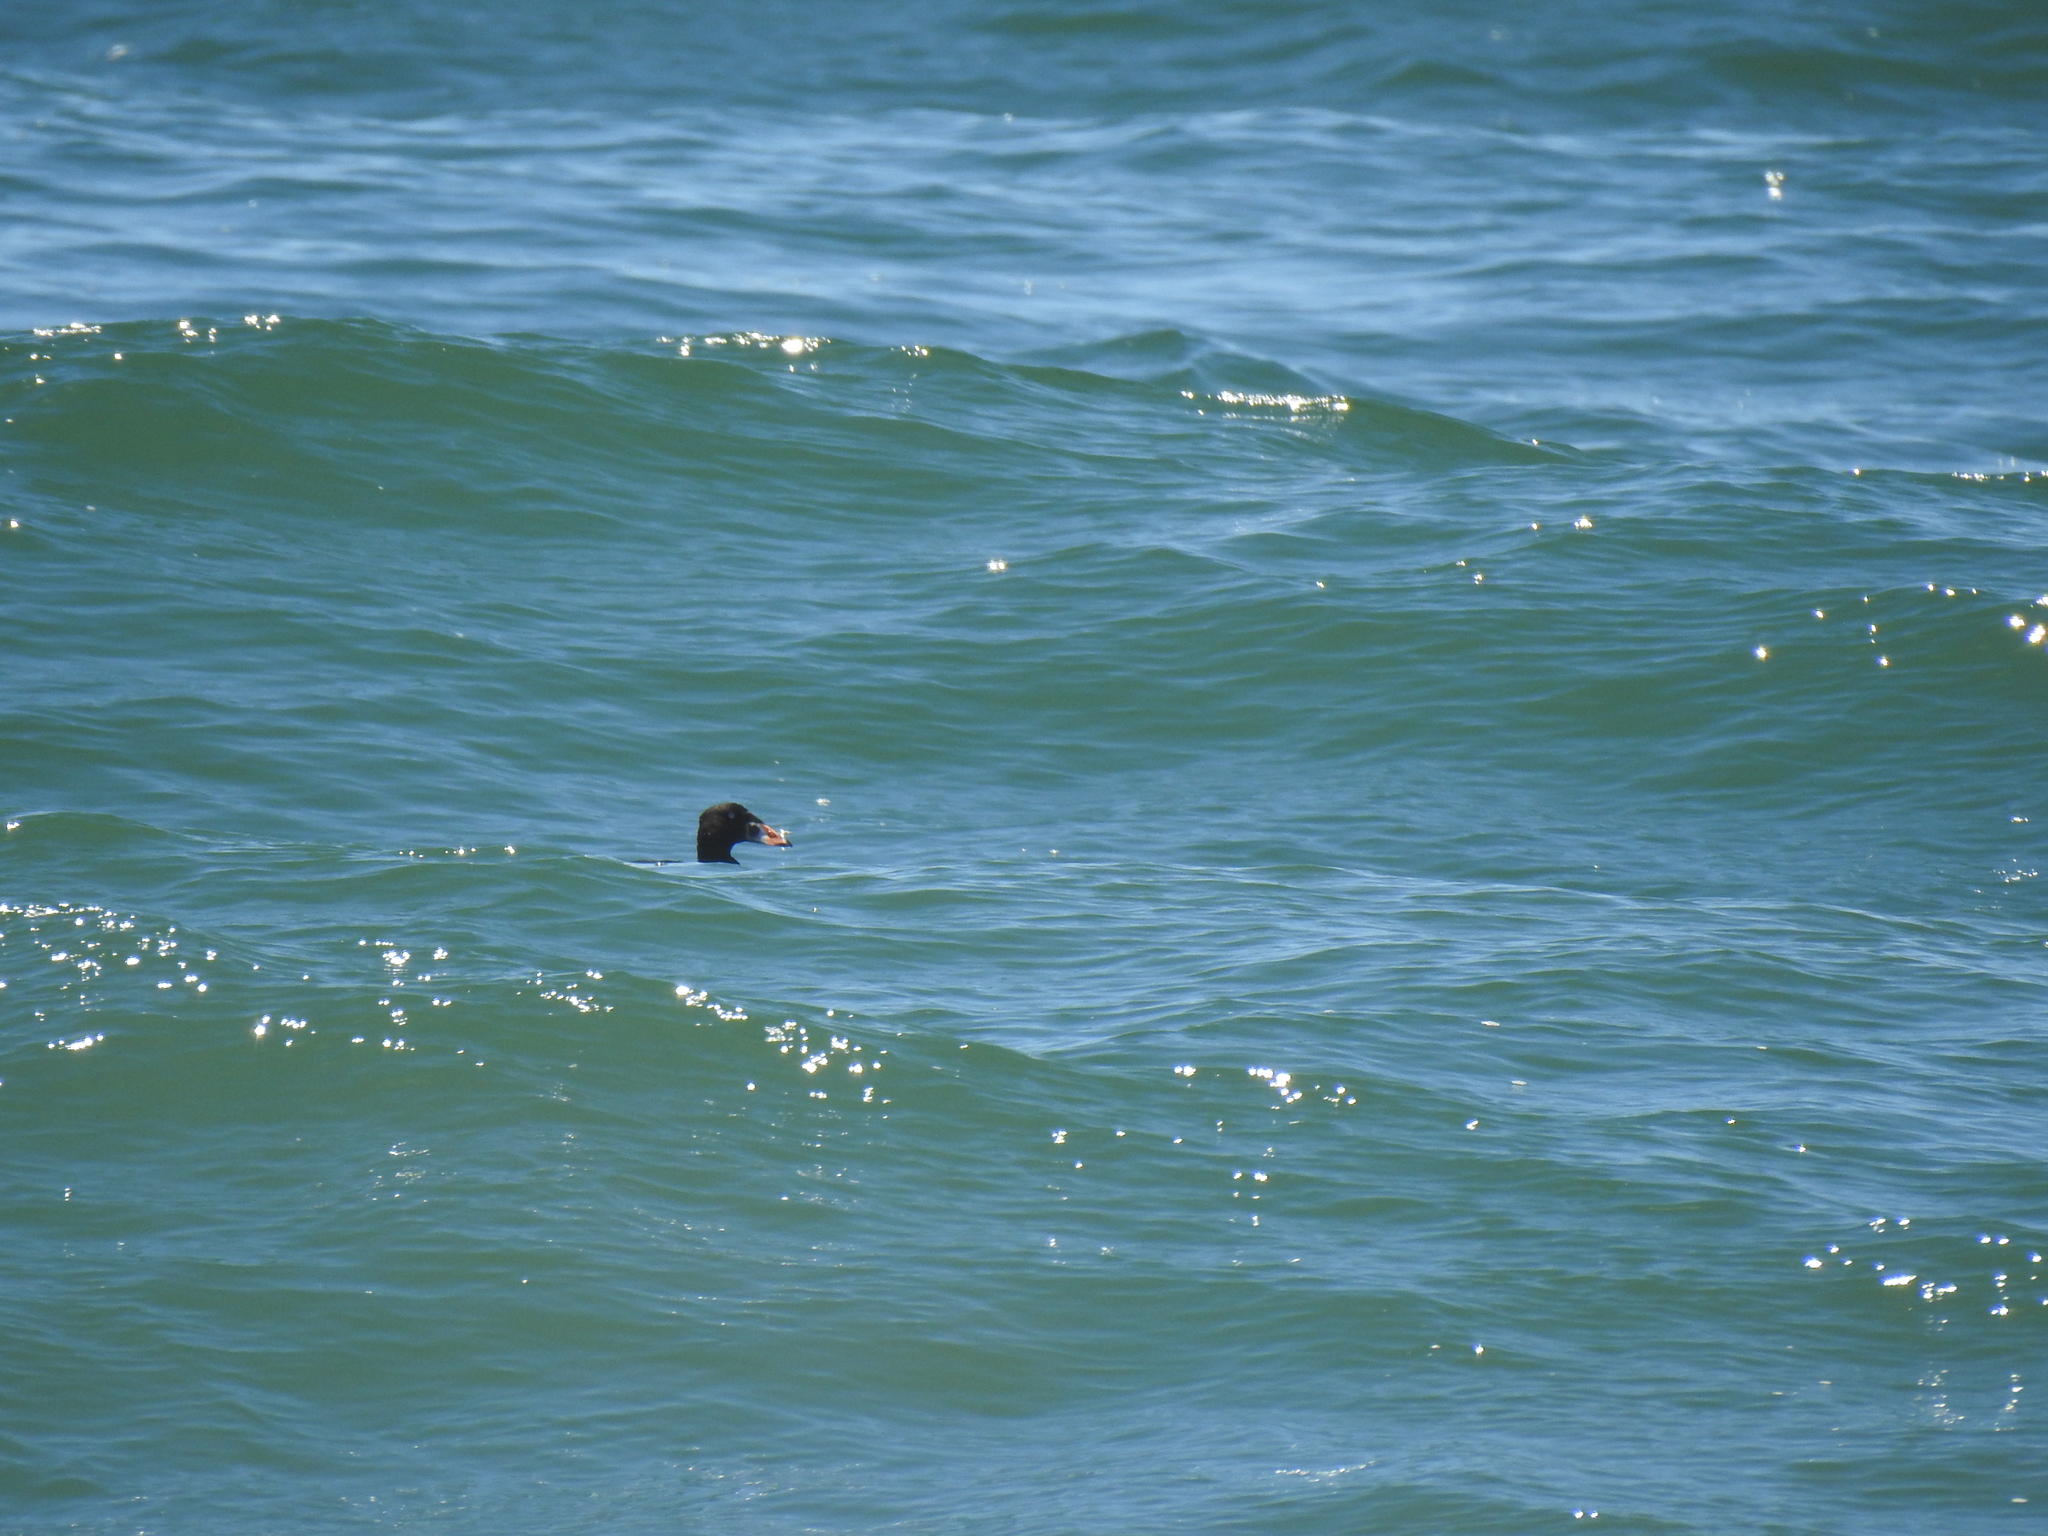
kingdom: Animalia
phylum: Chordata
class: Aves
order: Anseriformes
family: Anatidae
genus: Melanitta
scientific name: Melanitta perspicillata
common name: Surf scoter
